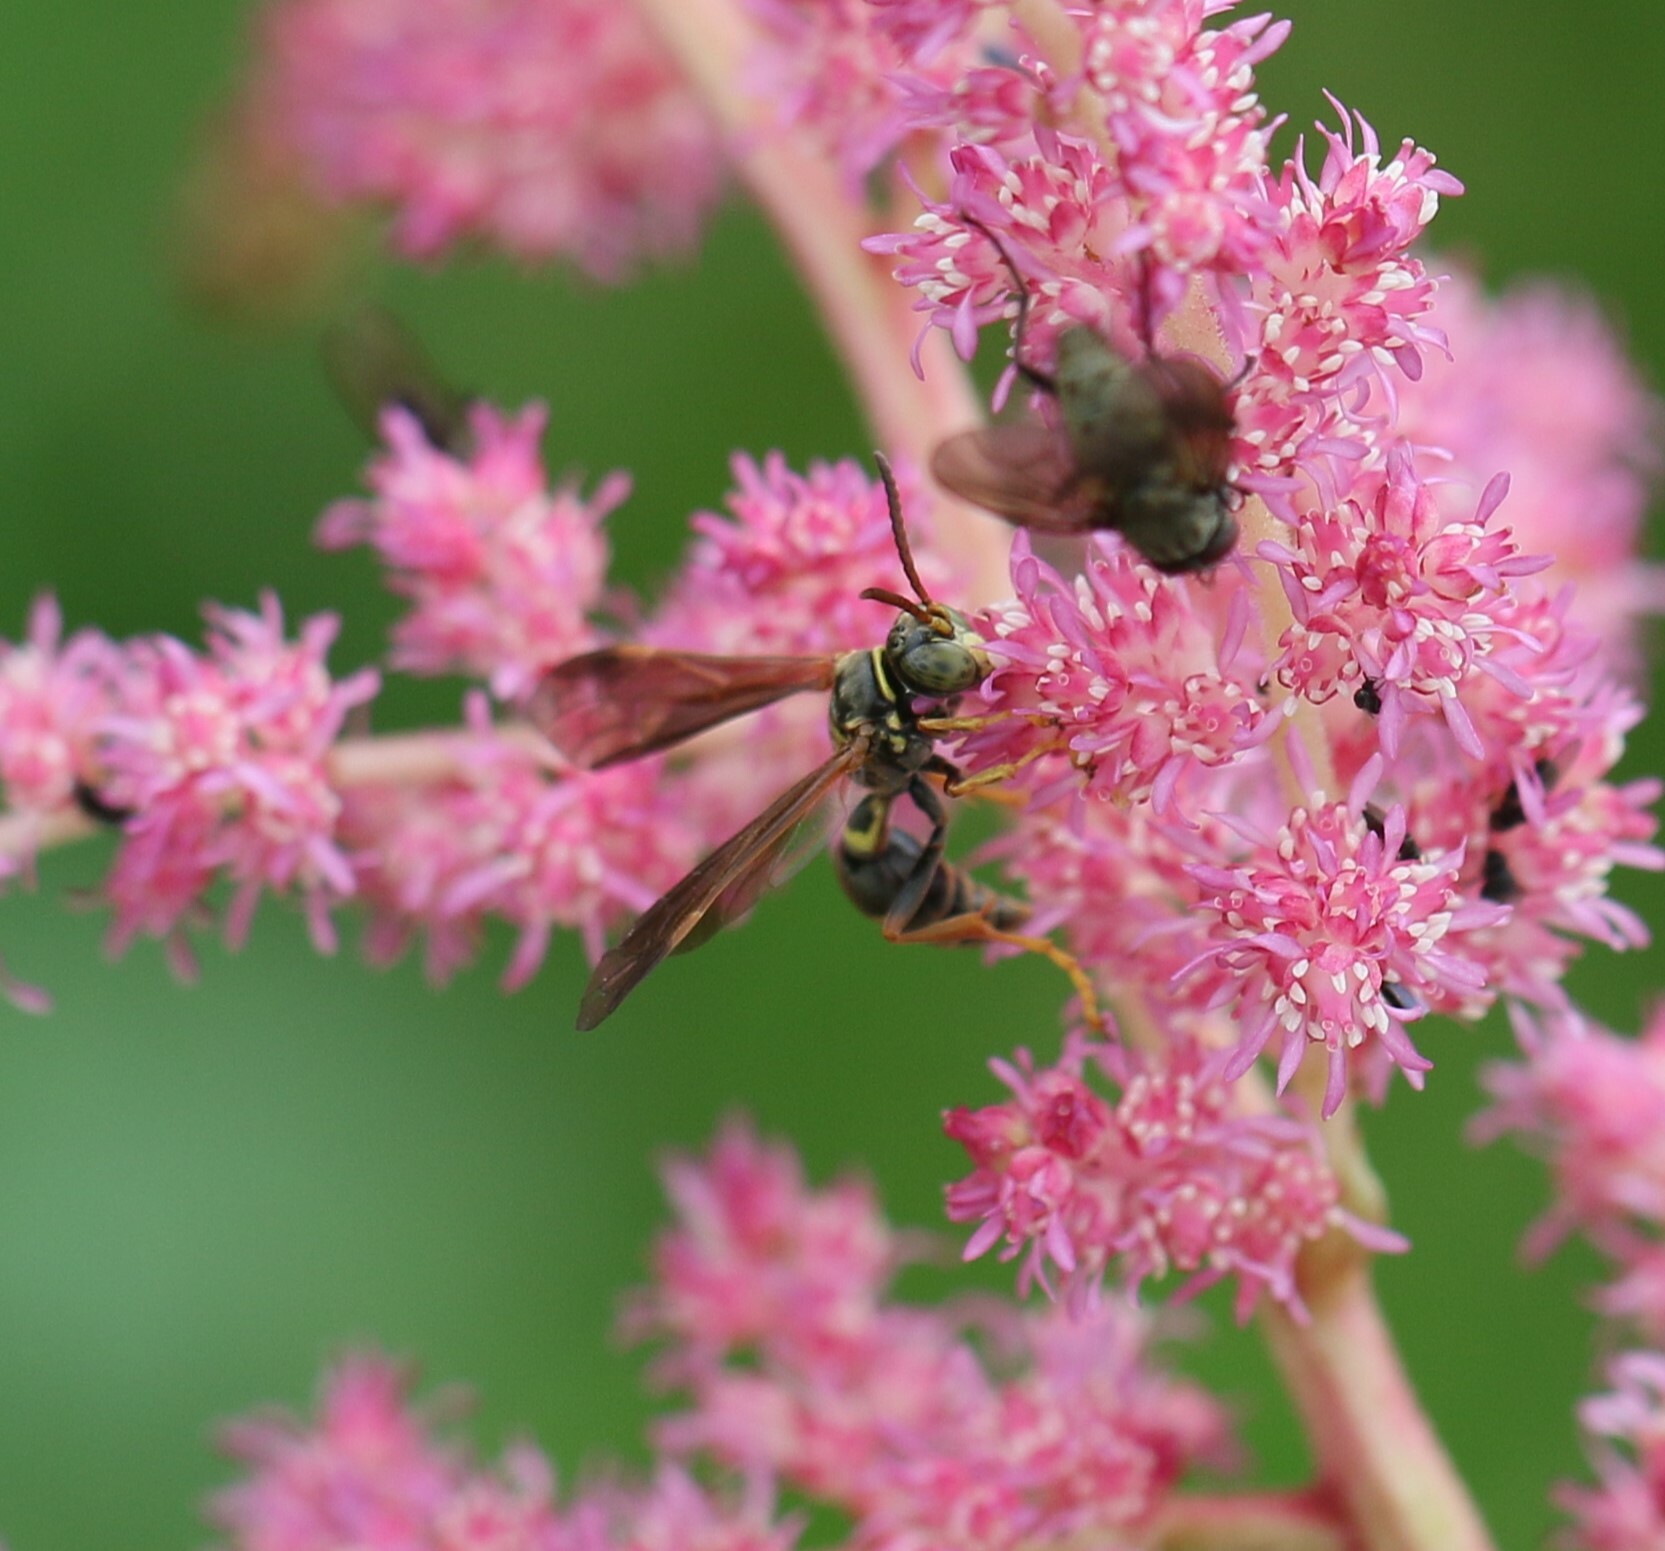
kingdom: Animalia
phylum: Arthropoda
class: Insecta
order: Hymenoptera
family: Crabronidae
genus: Saygorytes
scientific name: Saygorytes phaleratus
